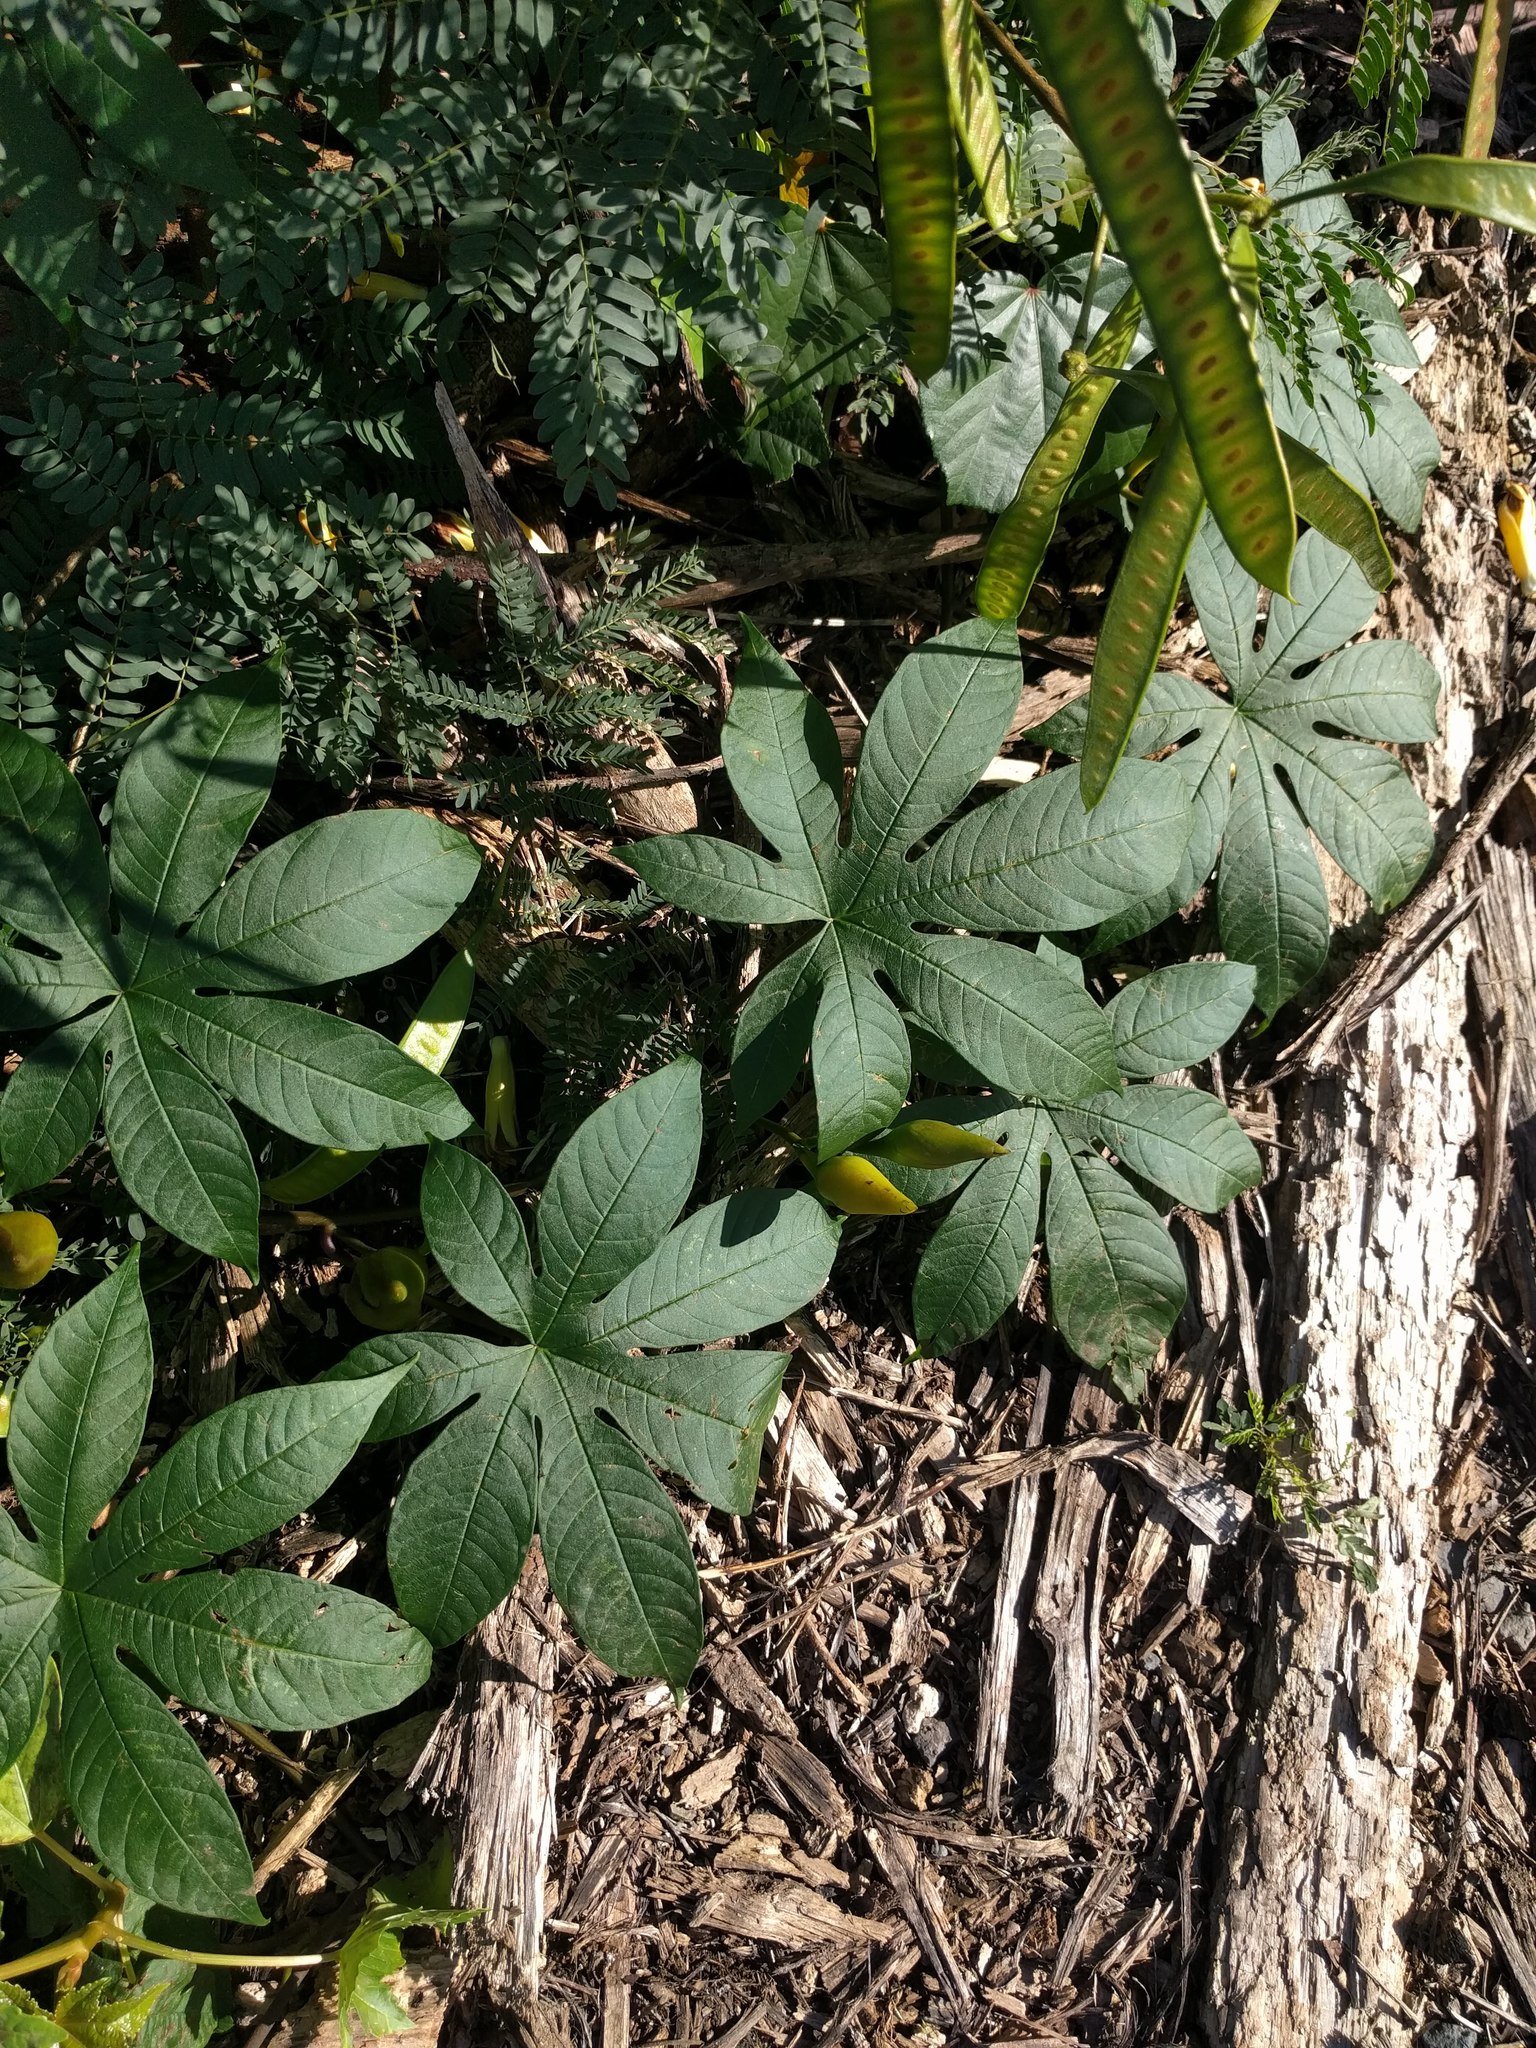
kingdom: Plantae
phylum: Tracheophyta
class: Magnoliopsida
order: Solanales
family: Convolvulaceae
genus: Distimake
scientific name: Distimake tuberosus
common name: Spanish arborvine
